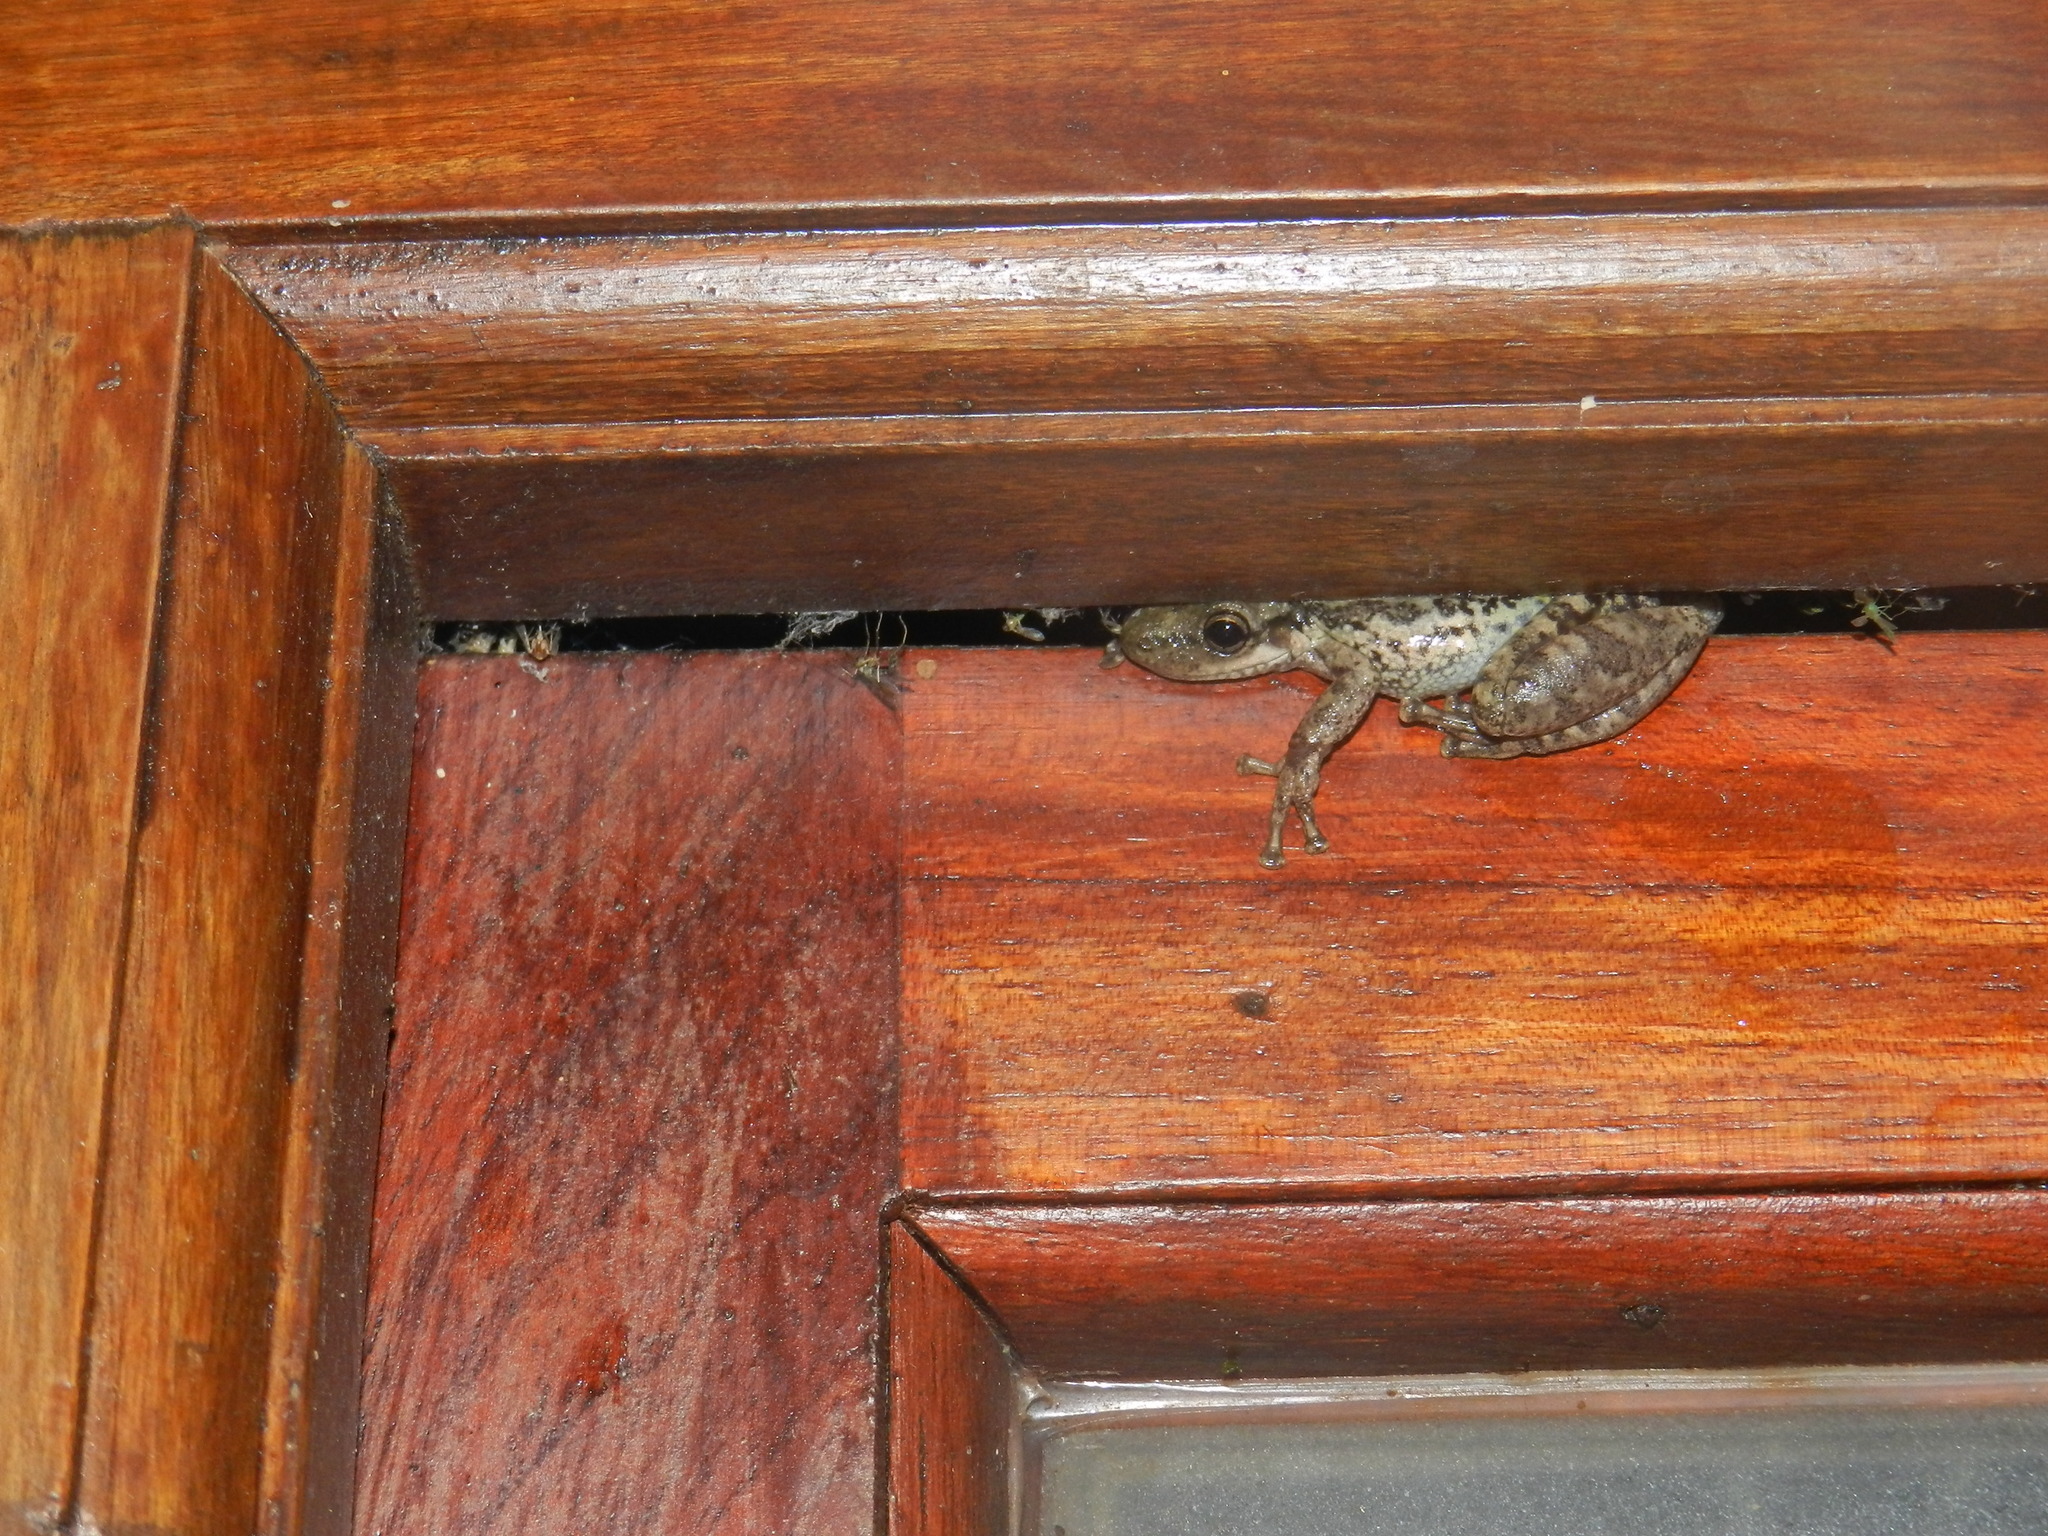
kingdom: Animalia
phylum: Chordata
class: Amphibia
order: Anura
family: Hylidae
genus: Scinax
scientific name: Scinax nasicus
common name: Lesser snouted treefrog
